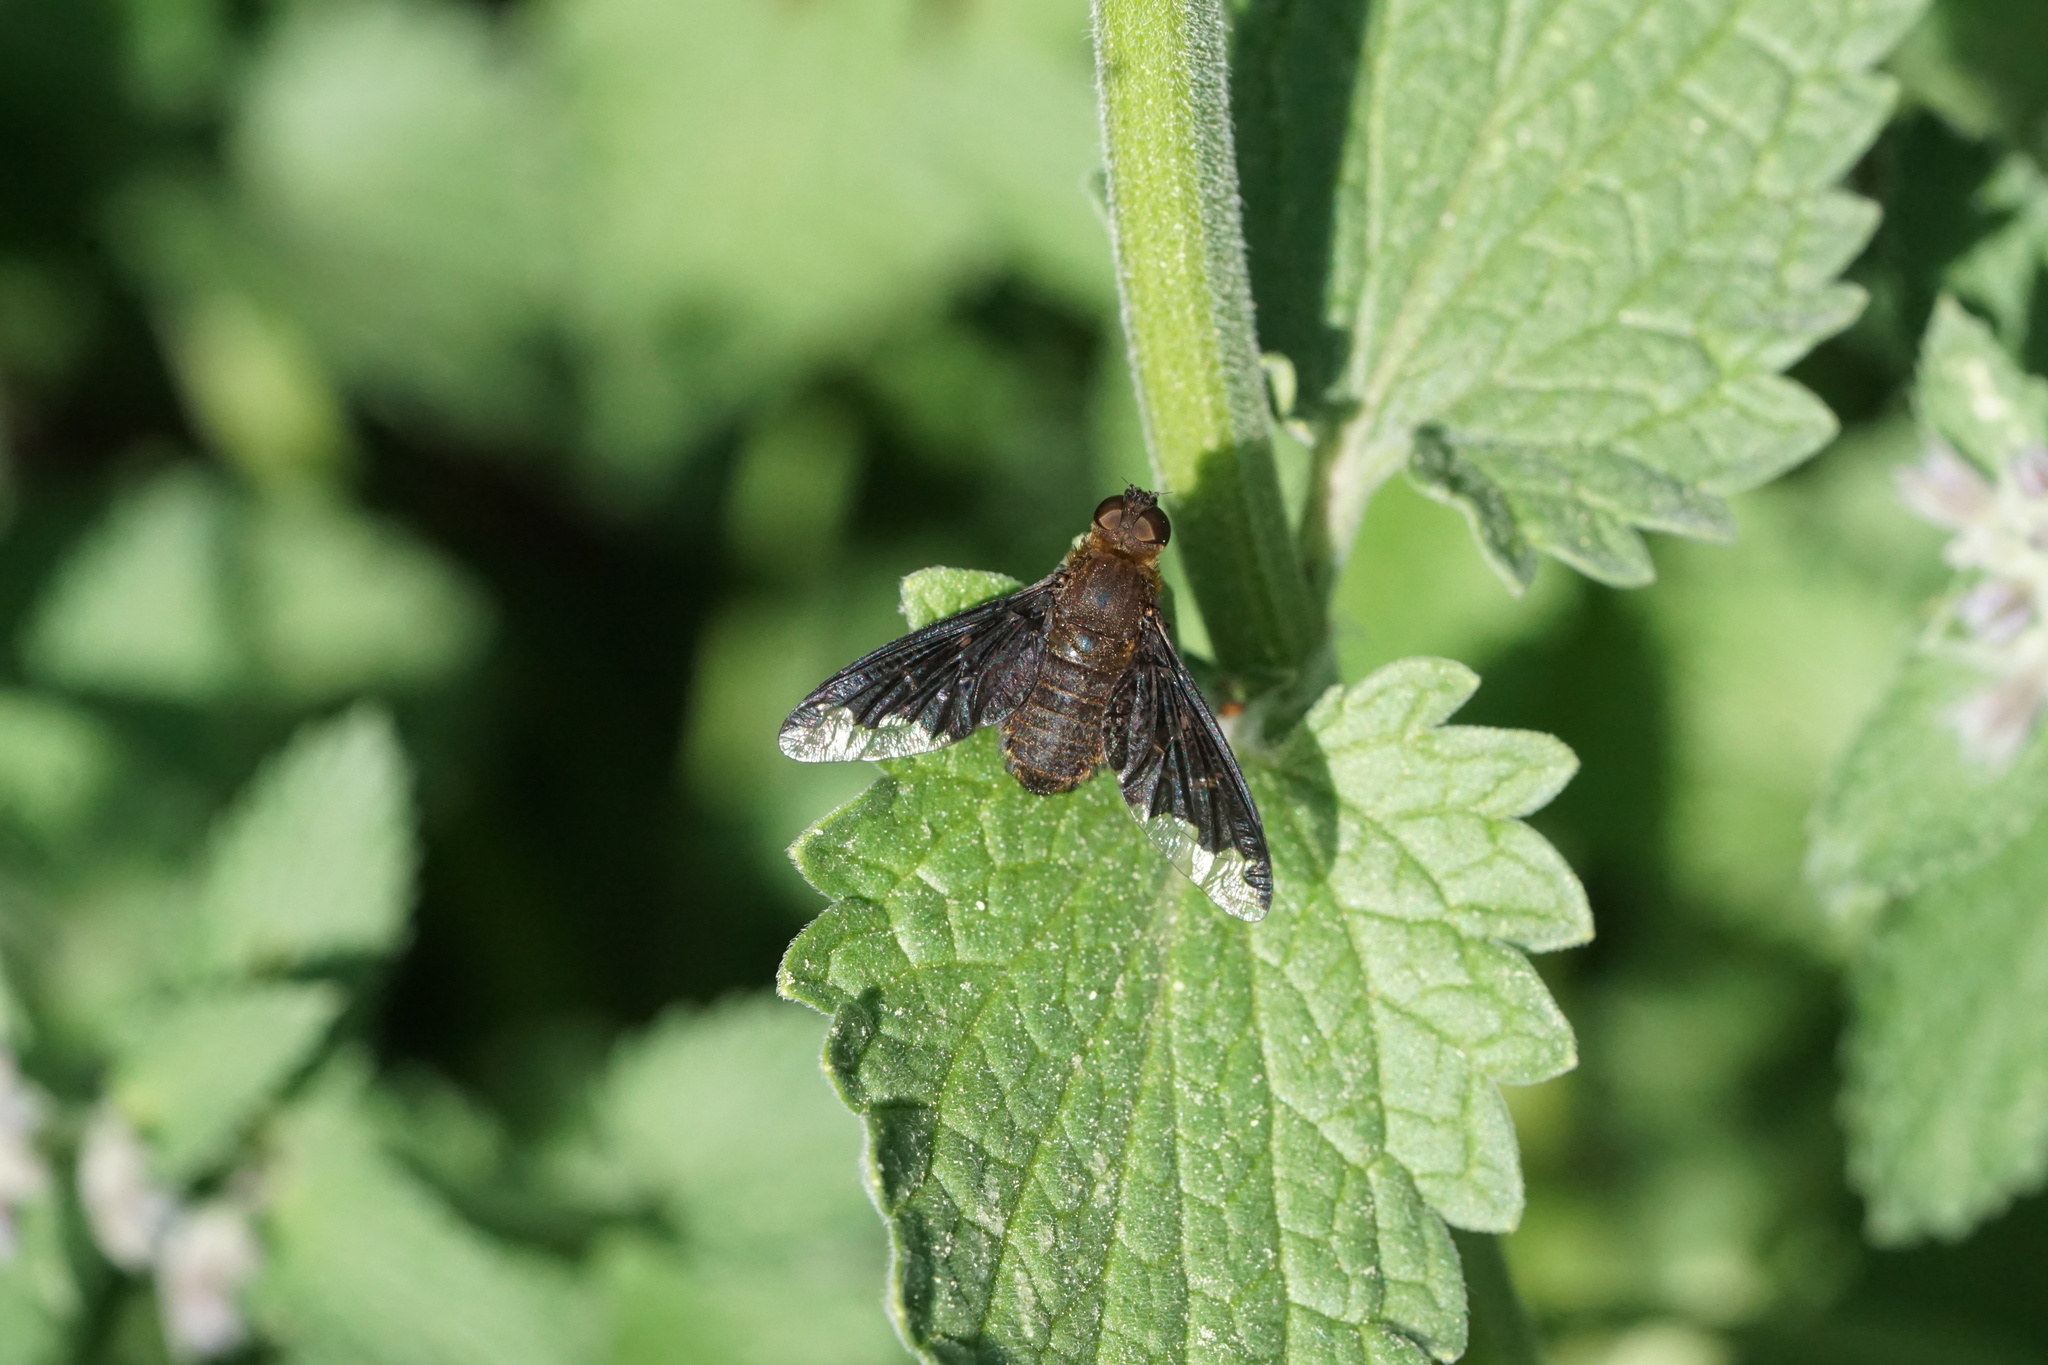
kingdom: Animalia
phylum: Arthropoda
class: Insecta
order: Diptera
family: Bombyliidae
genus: Hemipenthes
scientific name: Hemipenthes sinuosus
